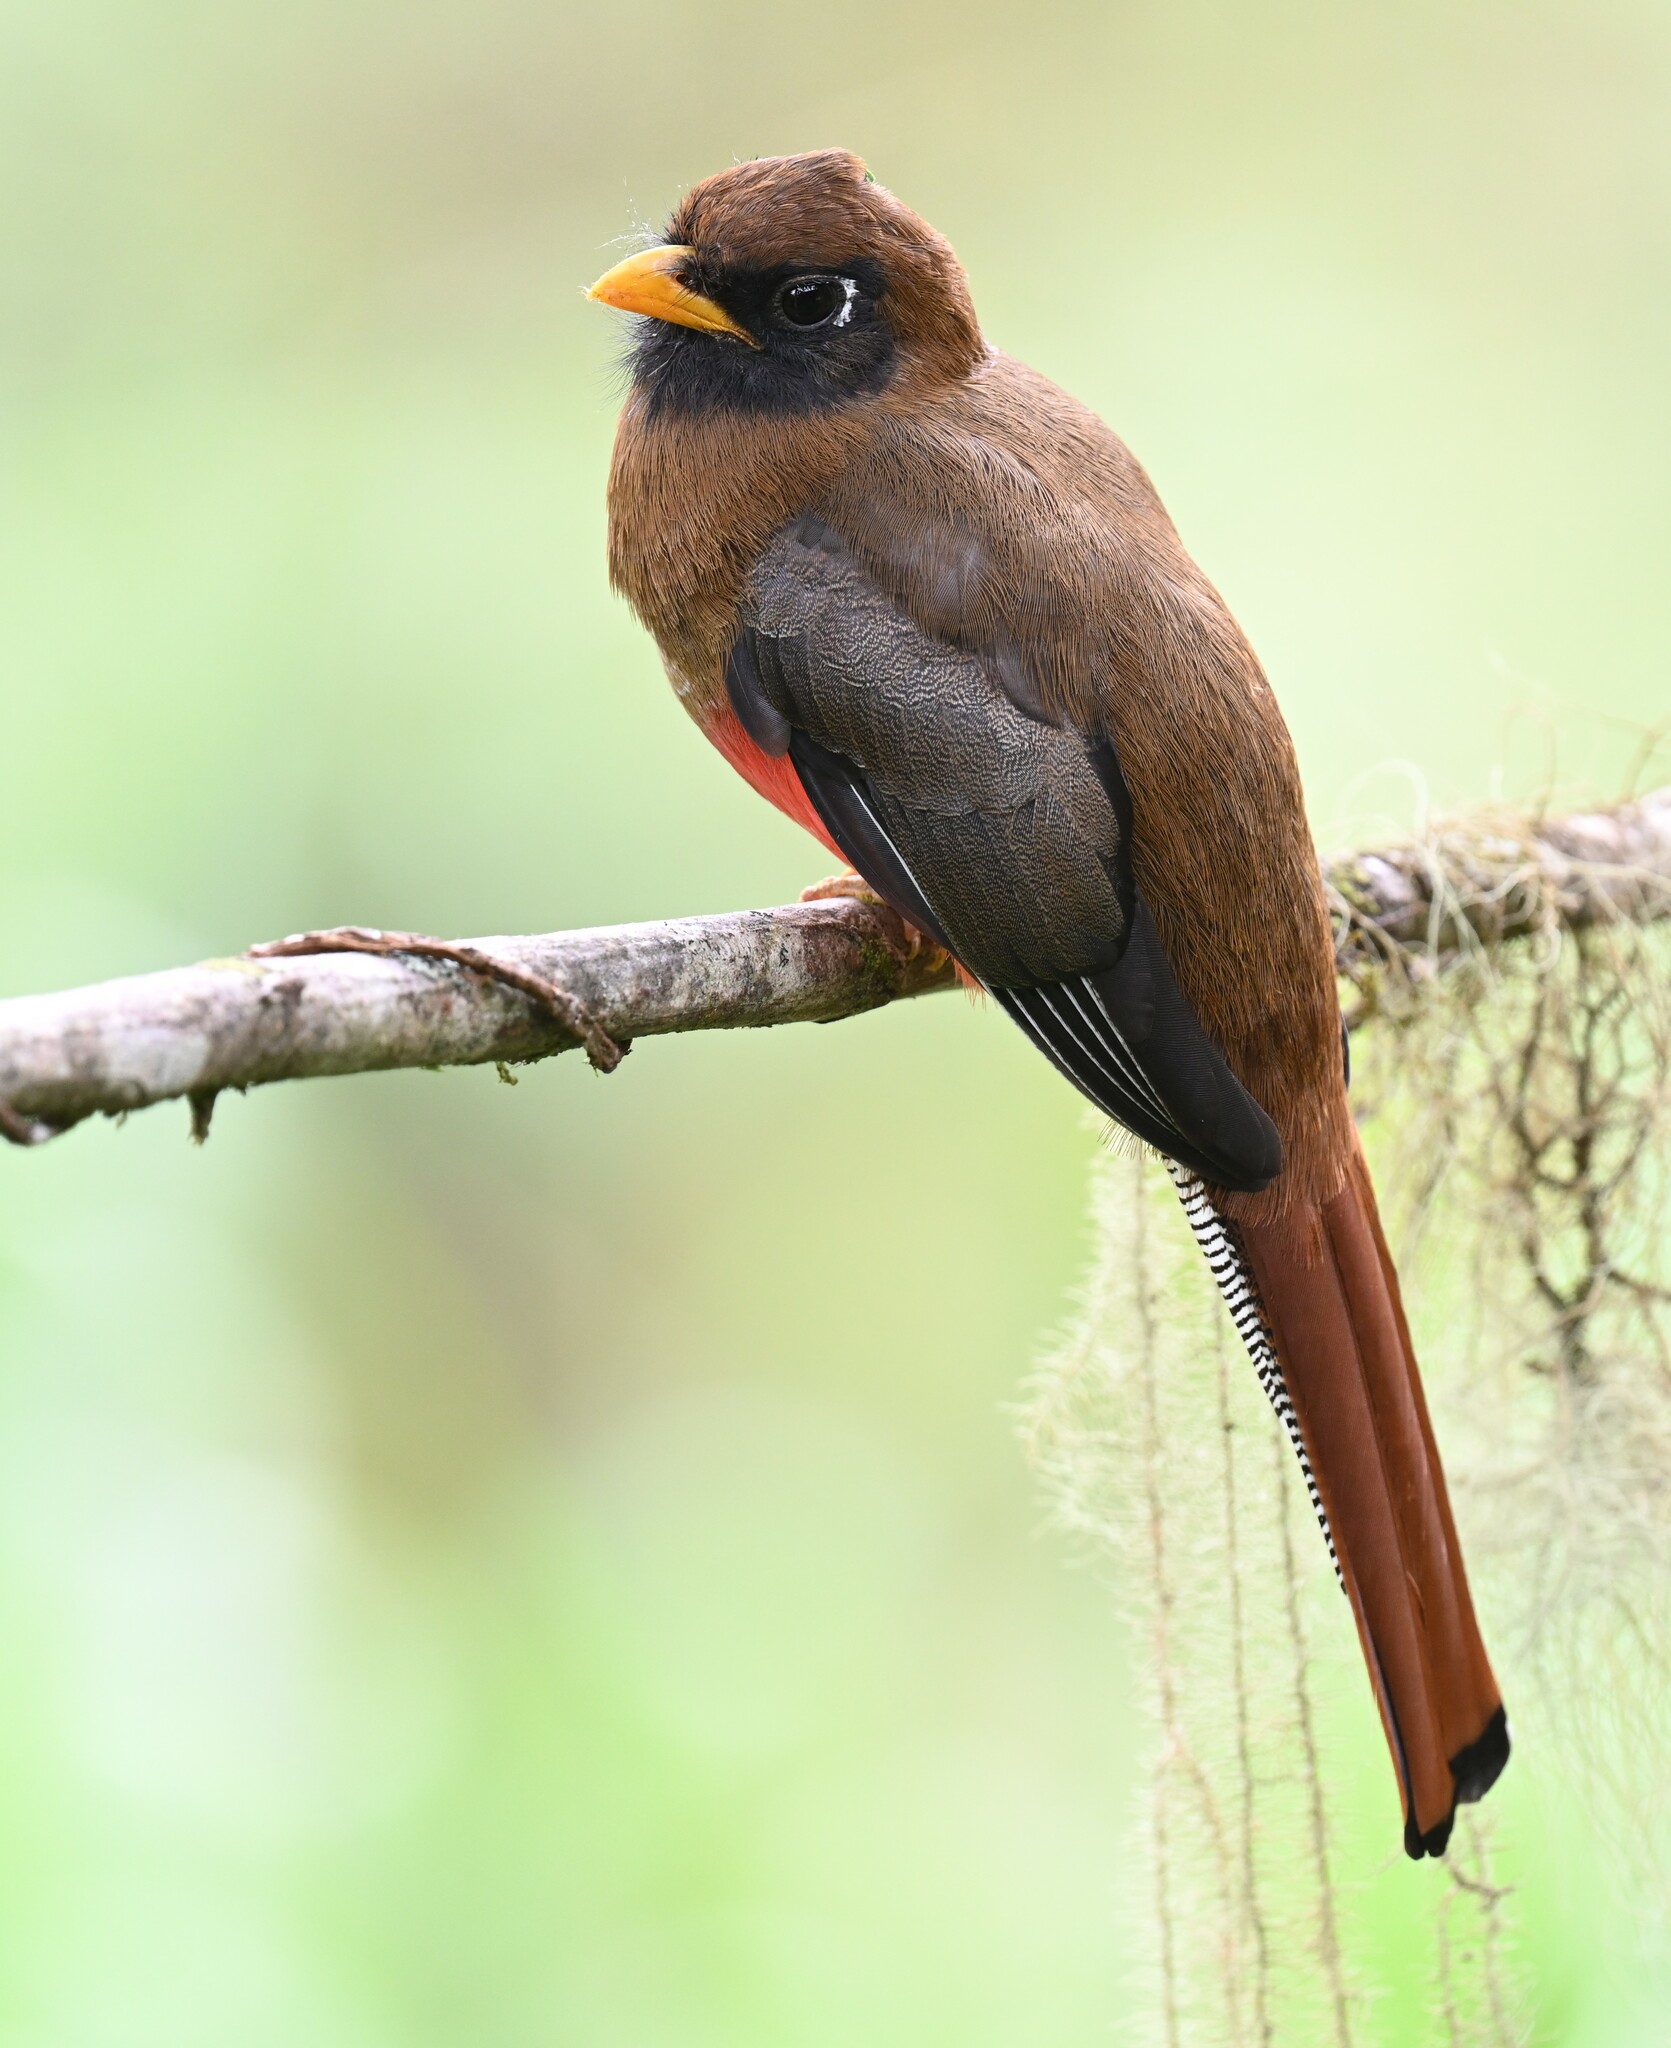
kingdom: Animalia
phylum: Chordata
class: Aves
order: Trogoniformes
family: Trogonidae
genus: Trogon
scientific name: Trogon personatus
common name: Masked trogon
